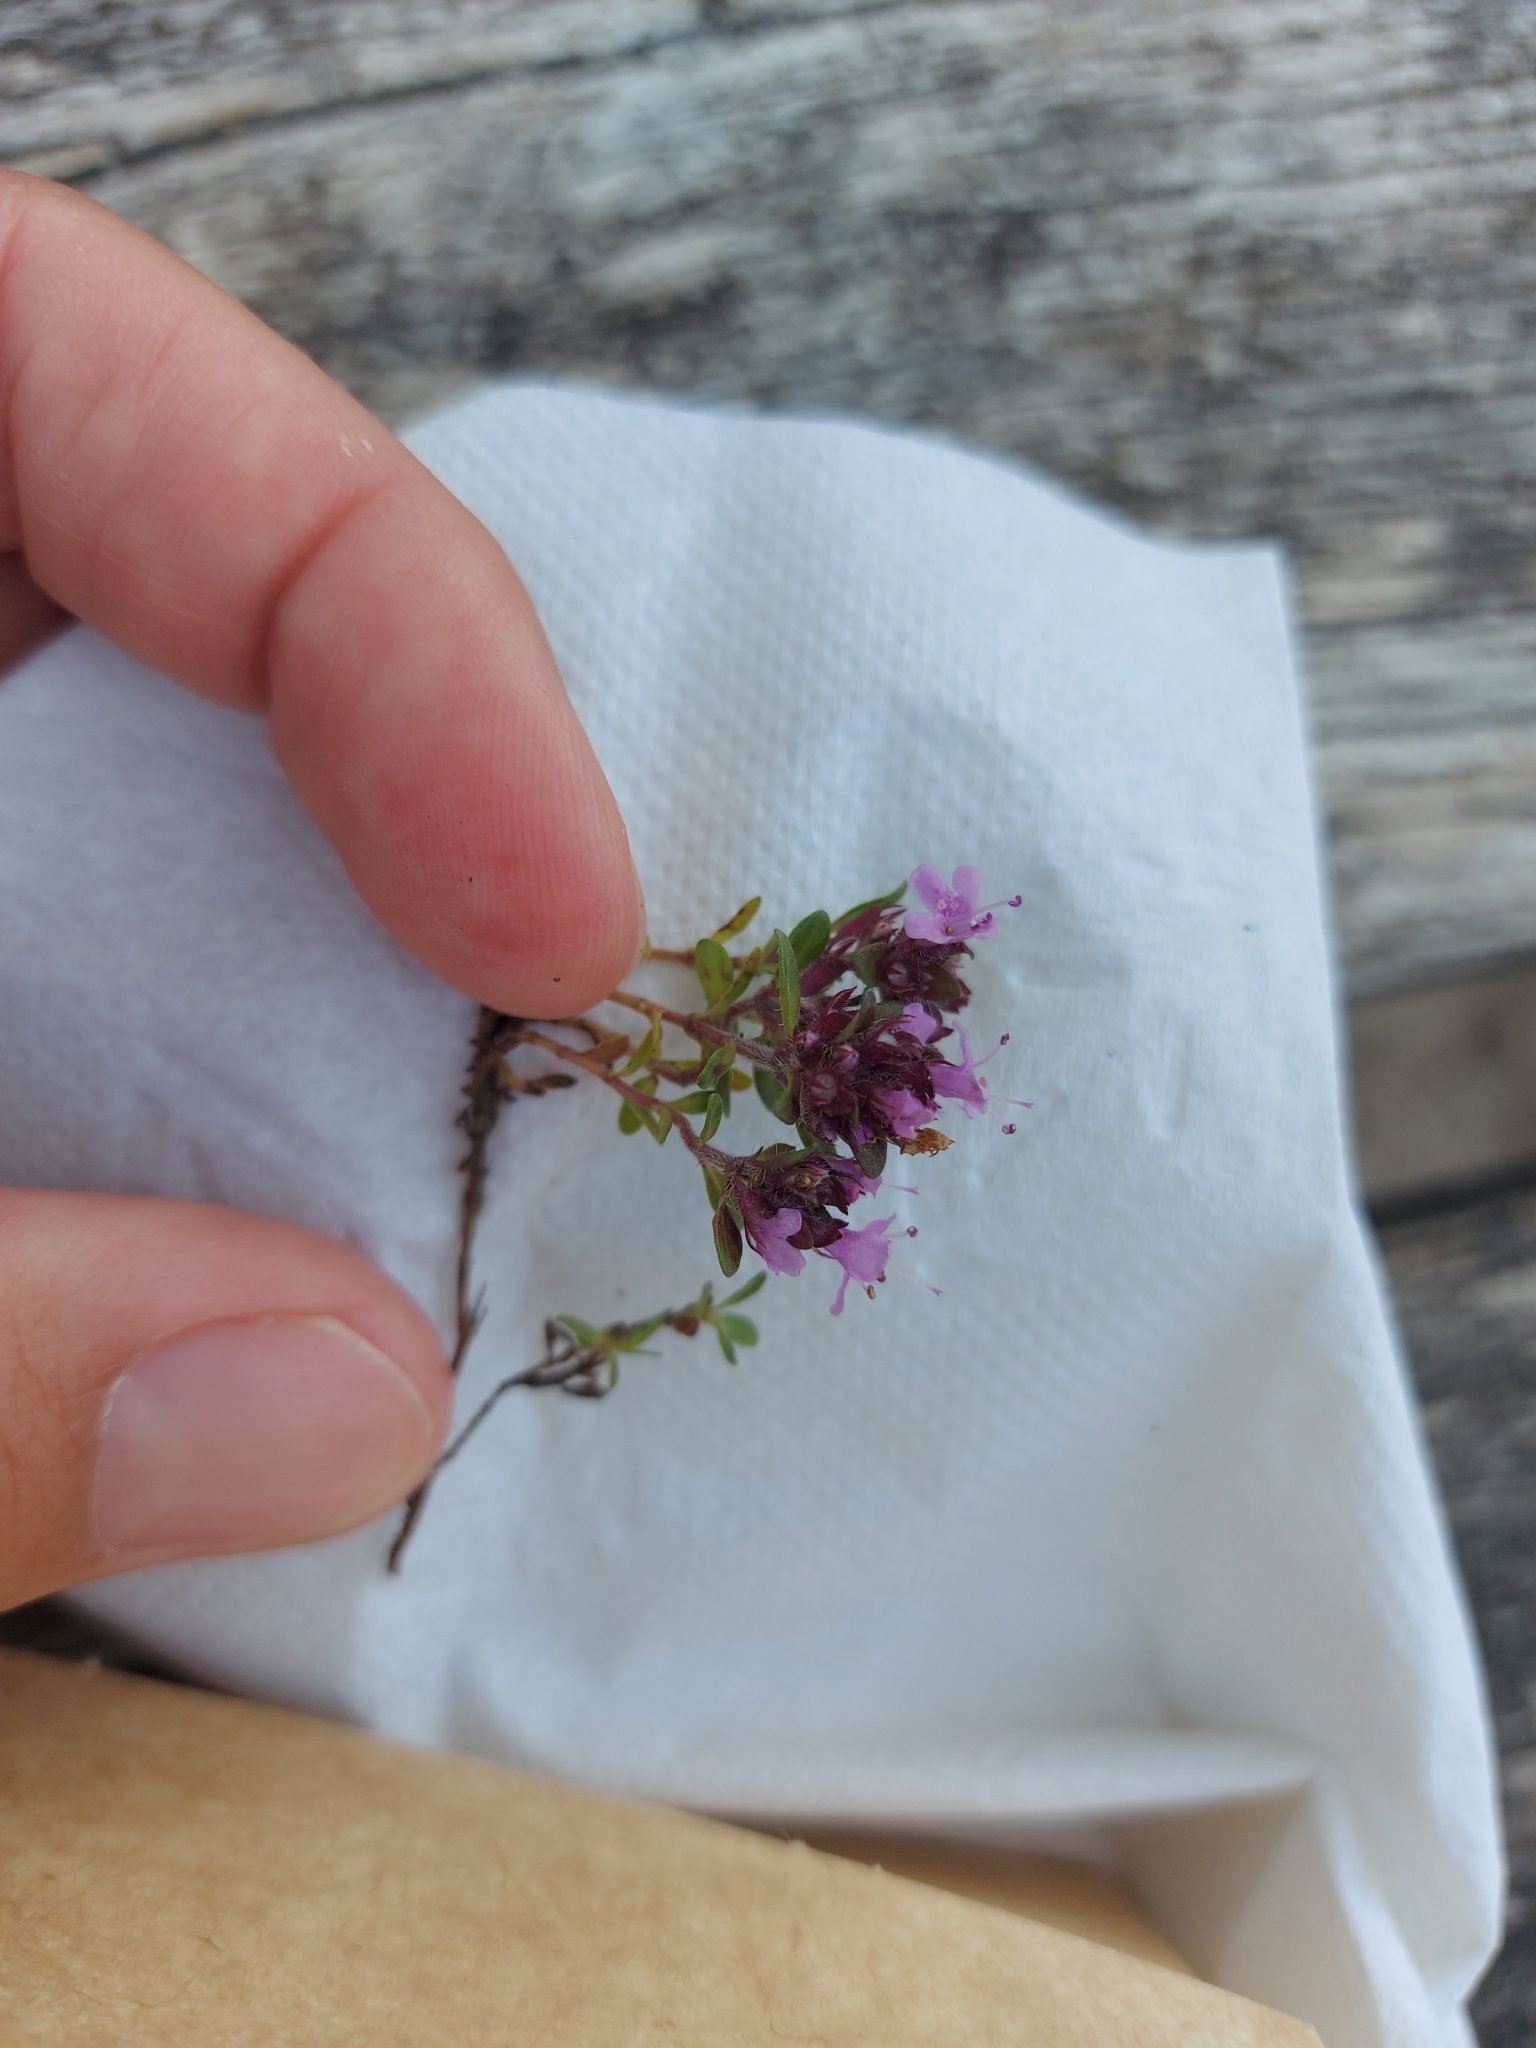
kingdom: Plantae
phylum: Tracheophyta
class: Magnoliopsida
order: Lamiales
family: Lamiaceae
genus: Thymus
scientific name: Thymus praecox
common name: Wild thyme
